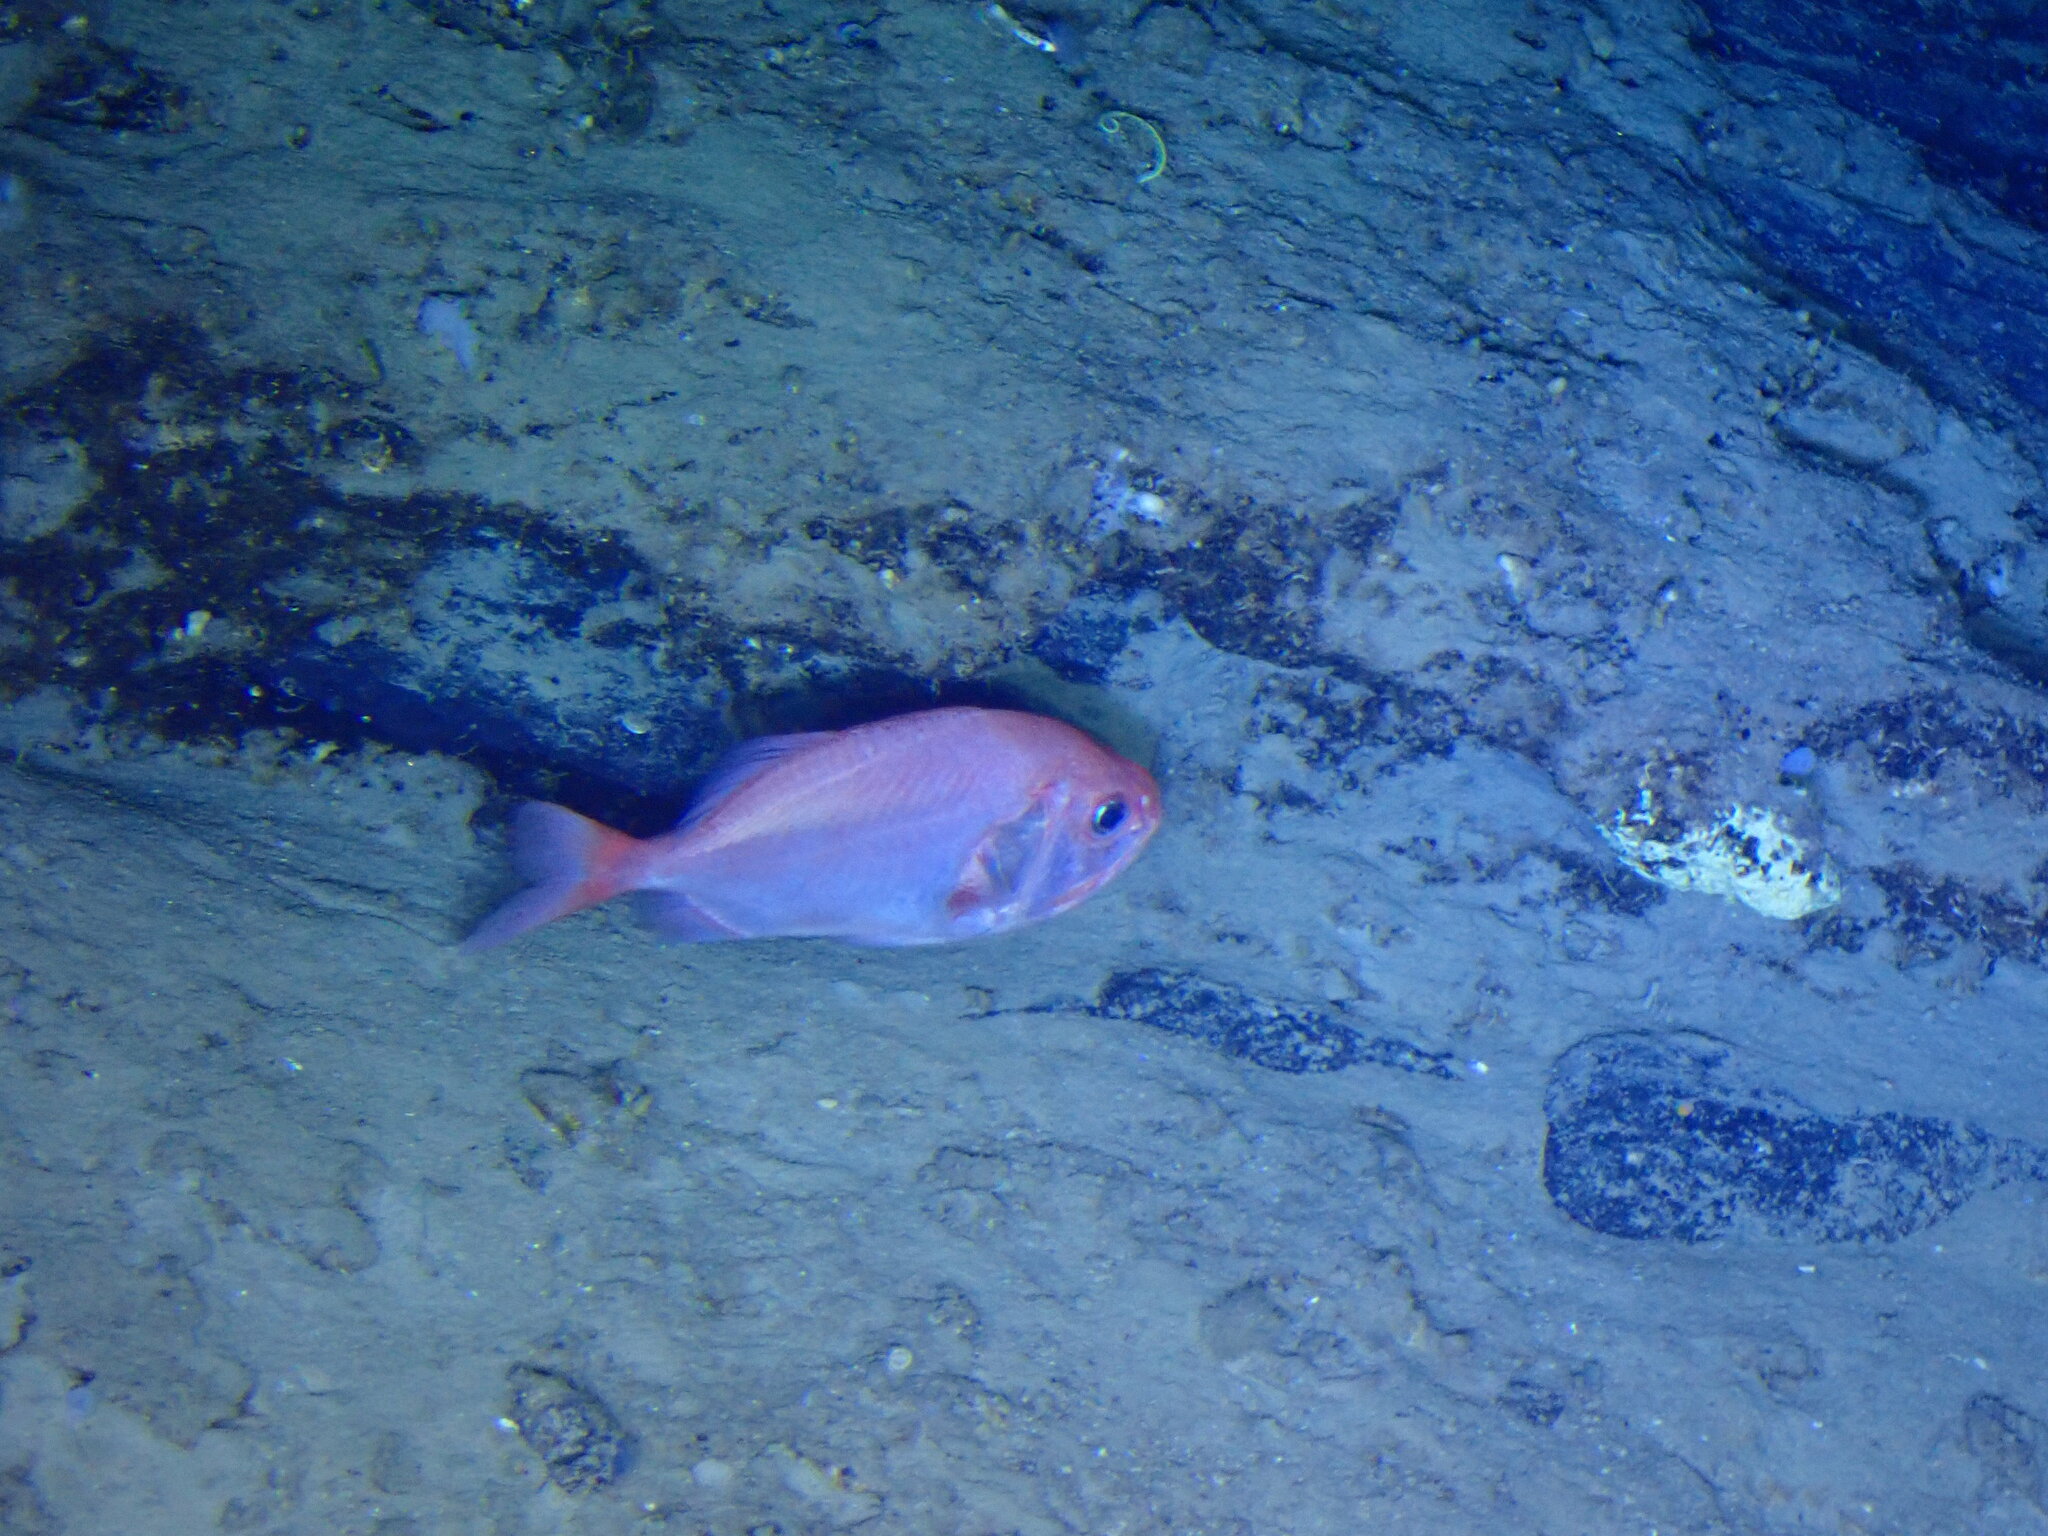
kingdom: Animalia
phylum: Chordata
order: Beryciformes
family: Trachichthyidae
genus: Gephyroberyx
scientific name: Gephyroberyx darwinii
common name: Big roughy
